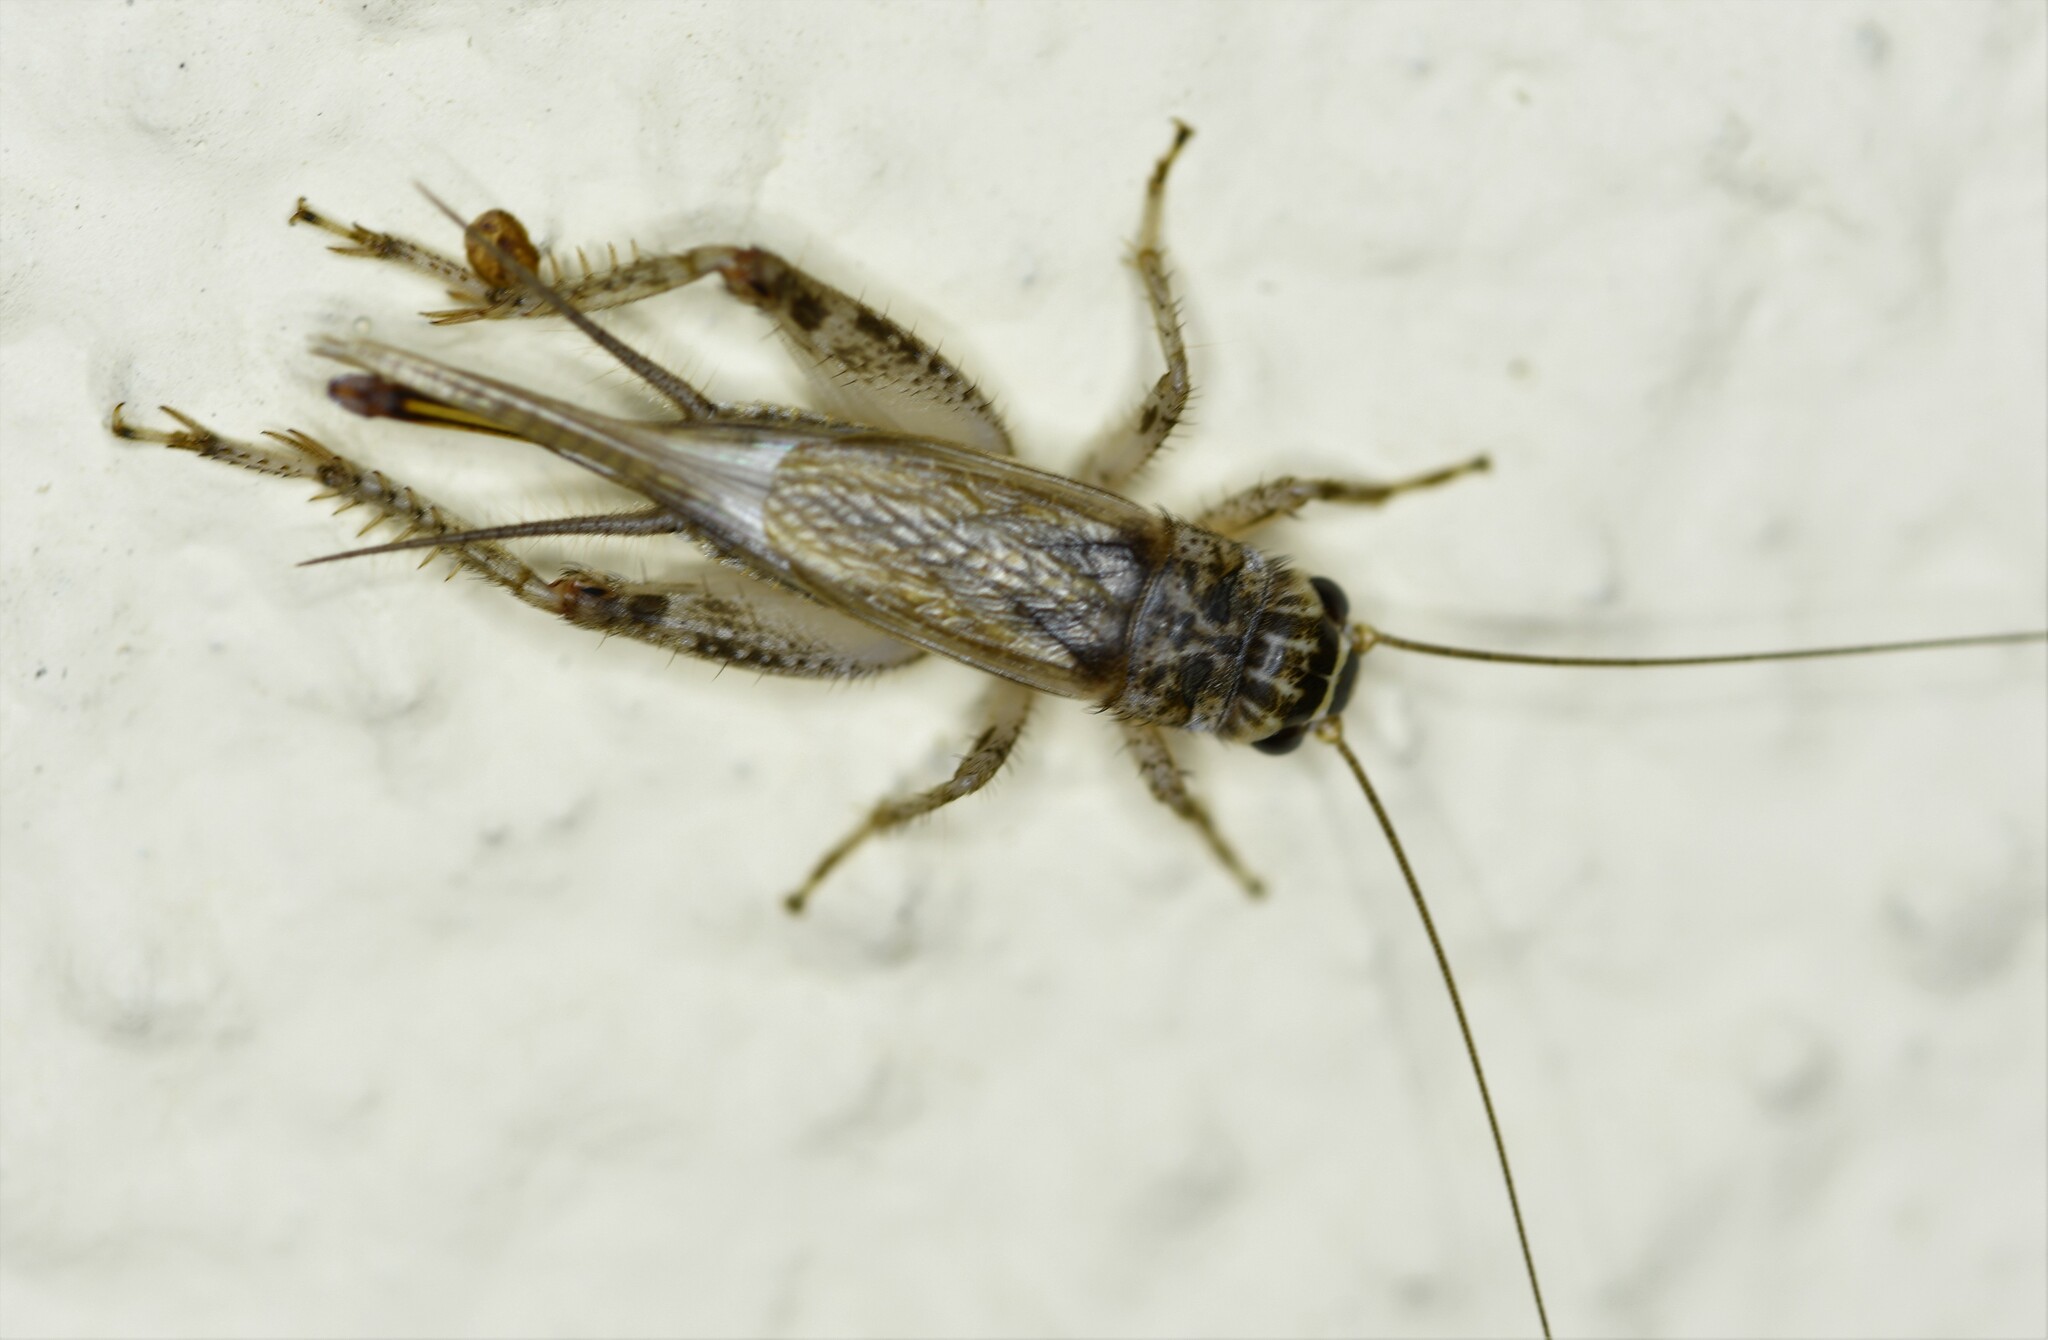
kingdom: Animalia
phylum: Arthropoda
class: Insecta
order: Orthoptera
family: Gryllidae
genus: Eumodicogryllus
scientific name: Eumodicogryllus bordigalensis
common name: Bordeaux cricket
